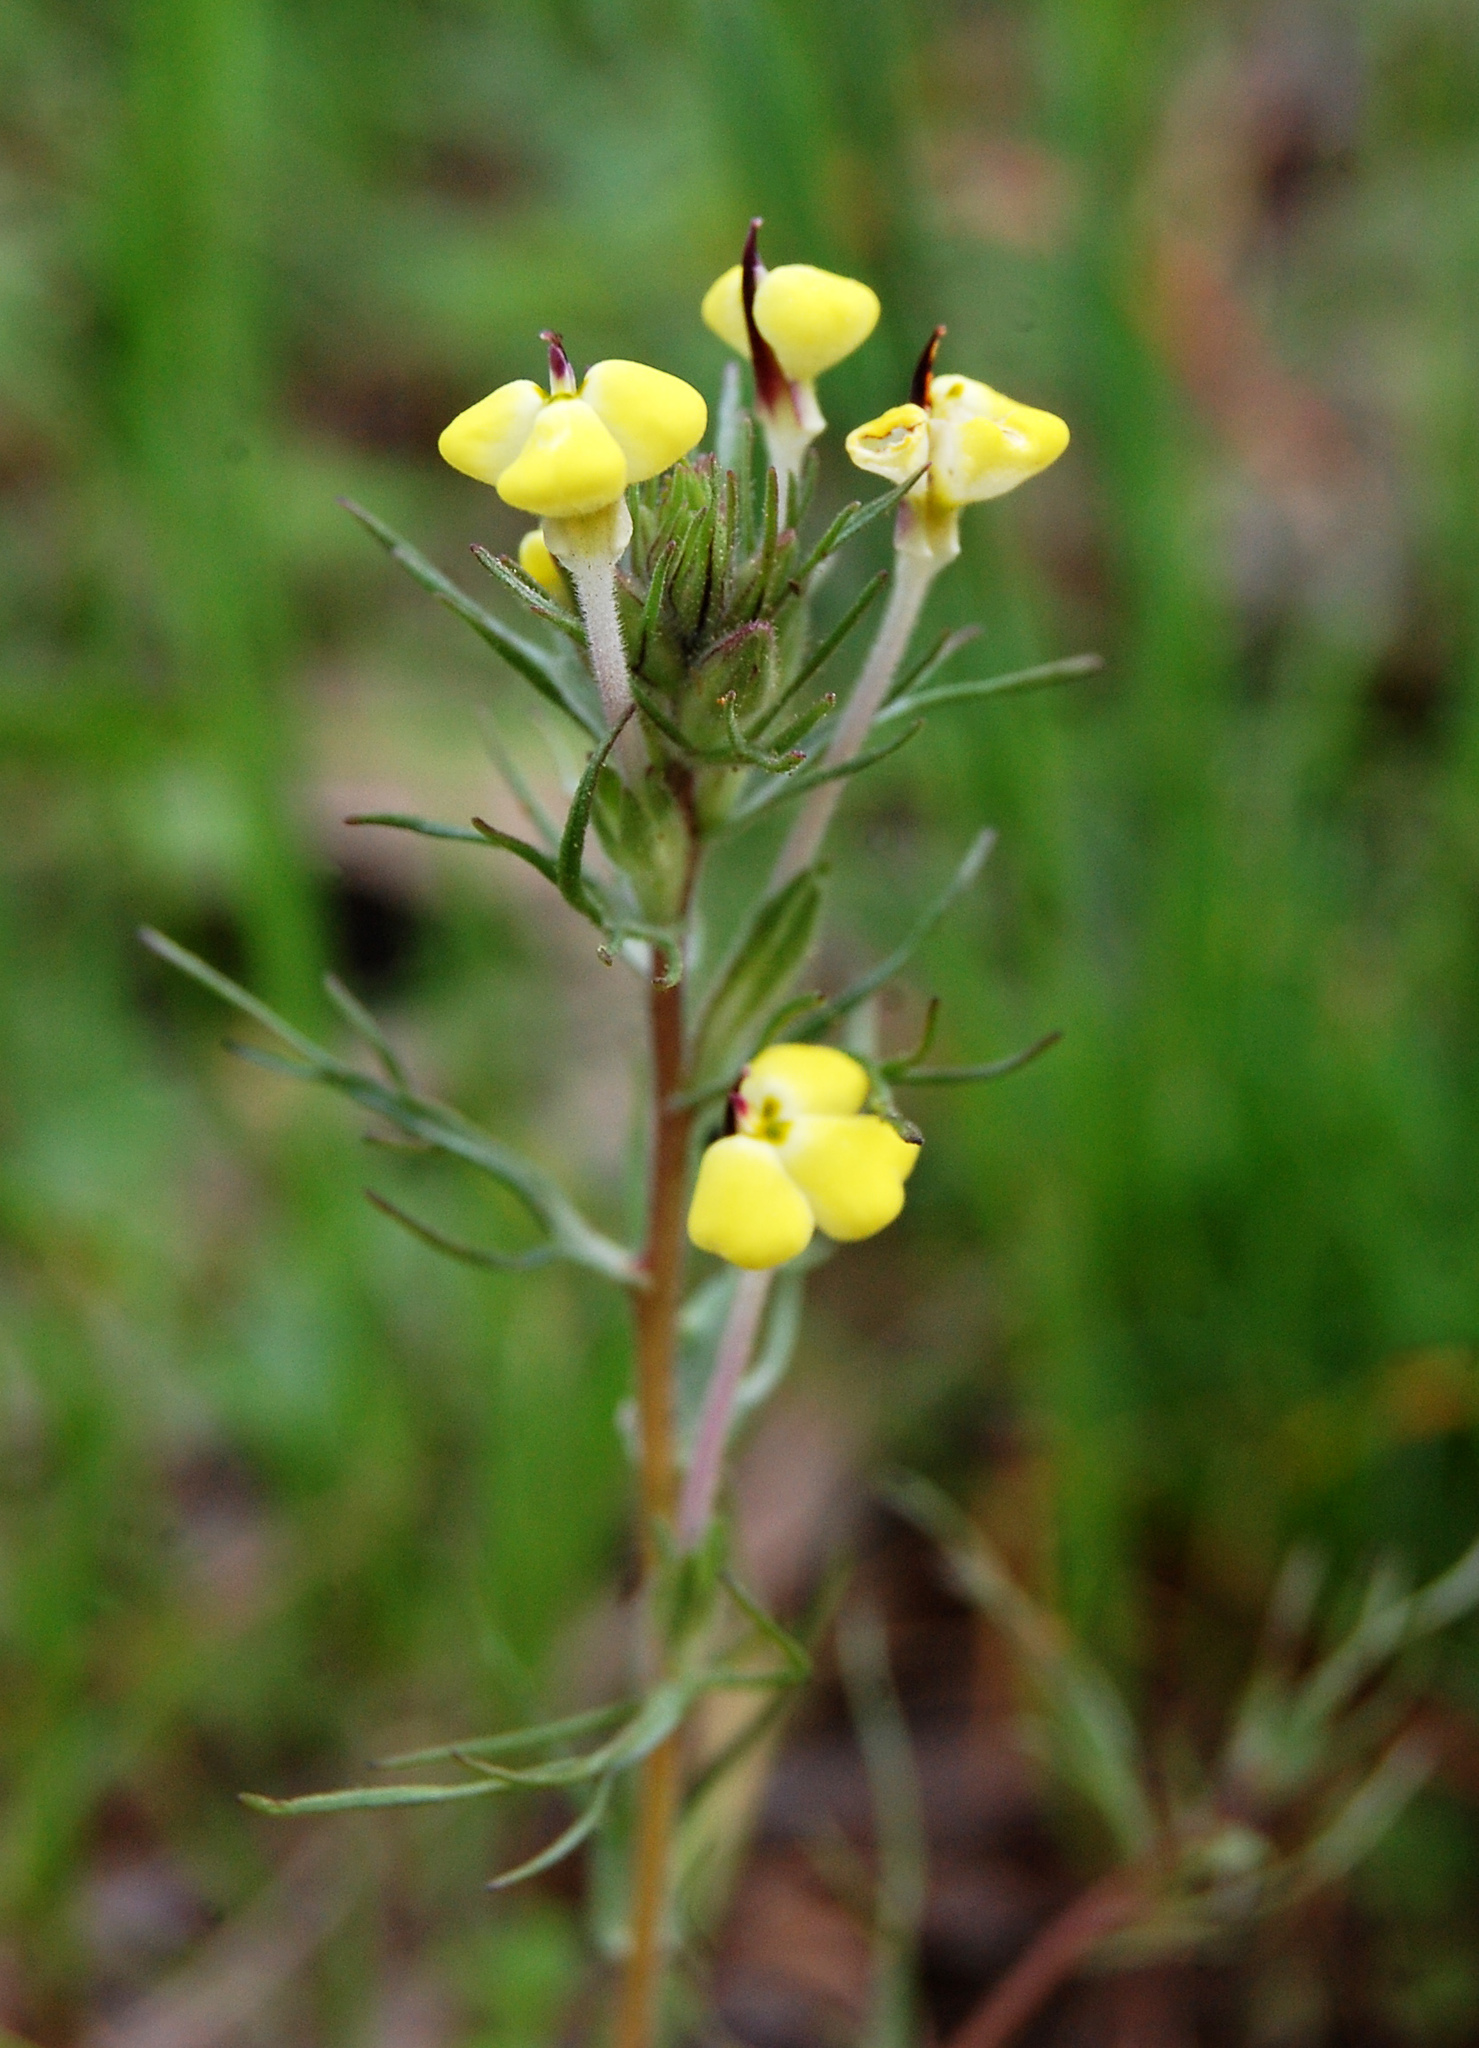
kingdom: Plantae
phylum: Tracheophyta
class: Magnoliopsida
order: Lamiales
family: Orobanchaceae
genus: Triphysaria
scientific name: Triphysaria eriantha
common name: Johnny-tuck
